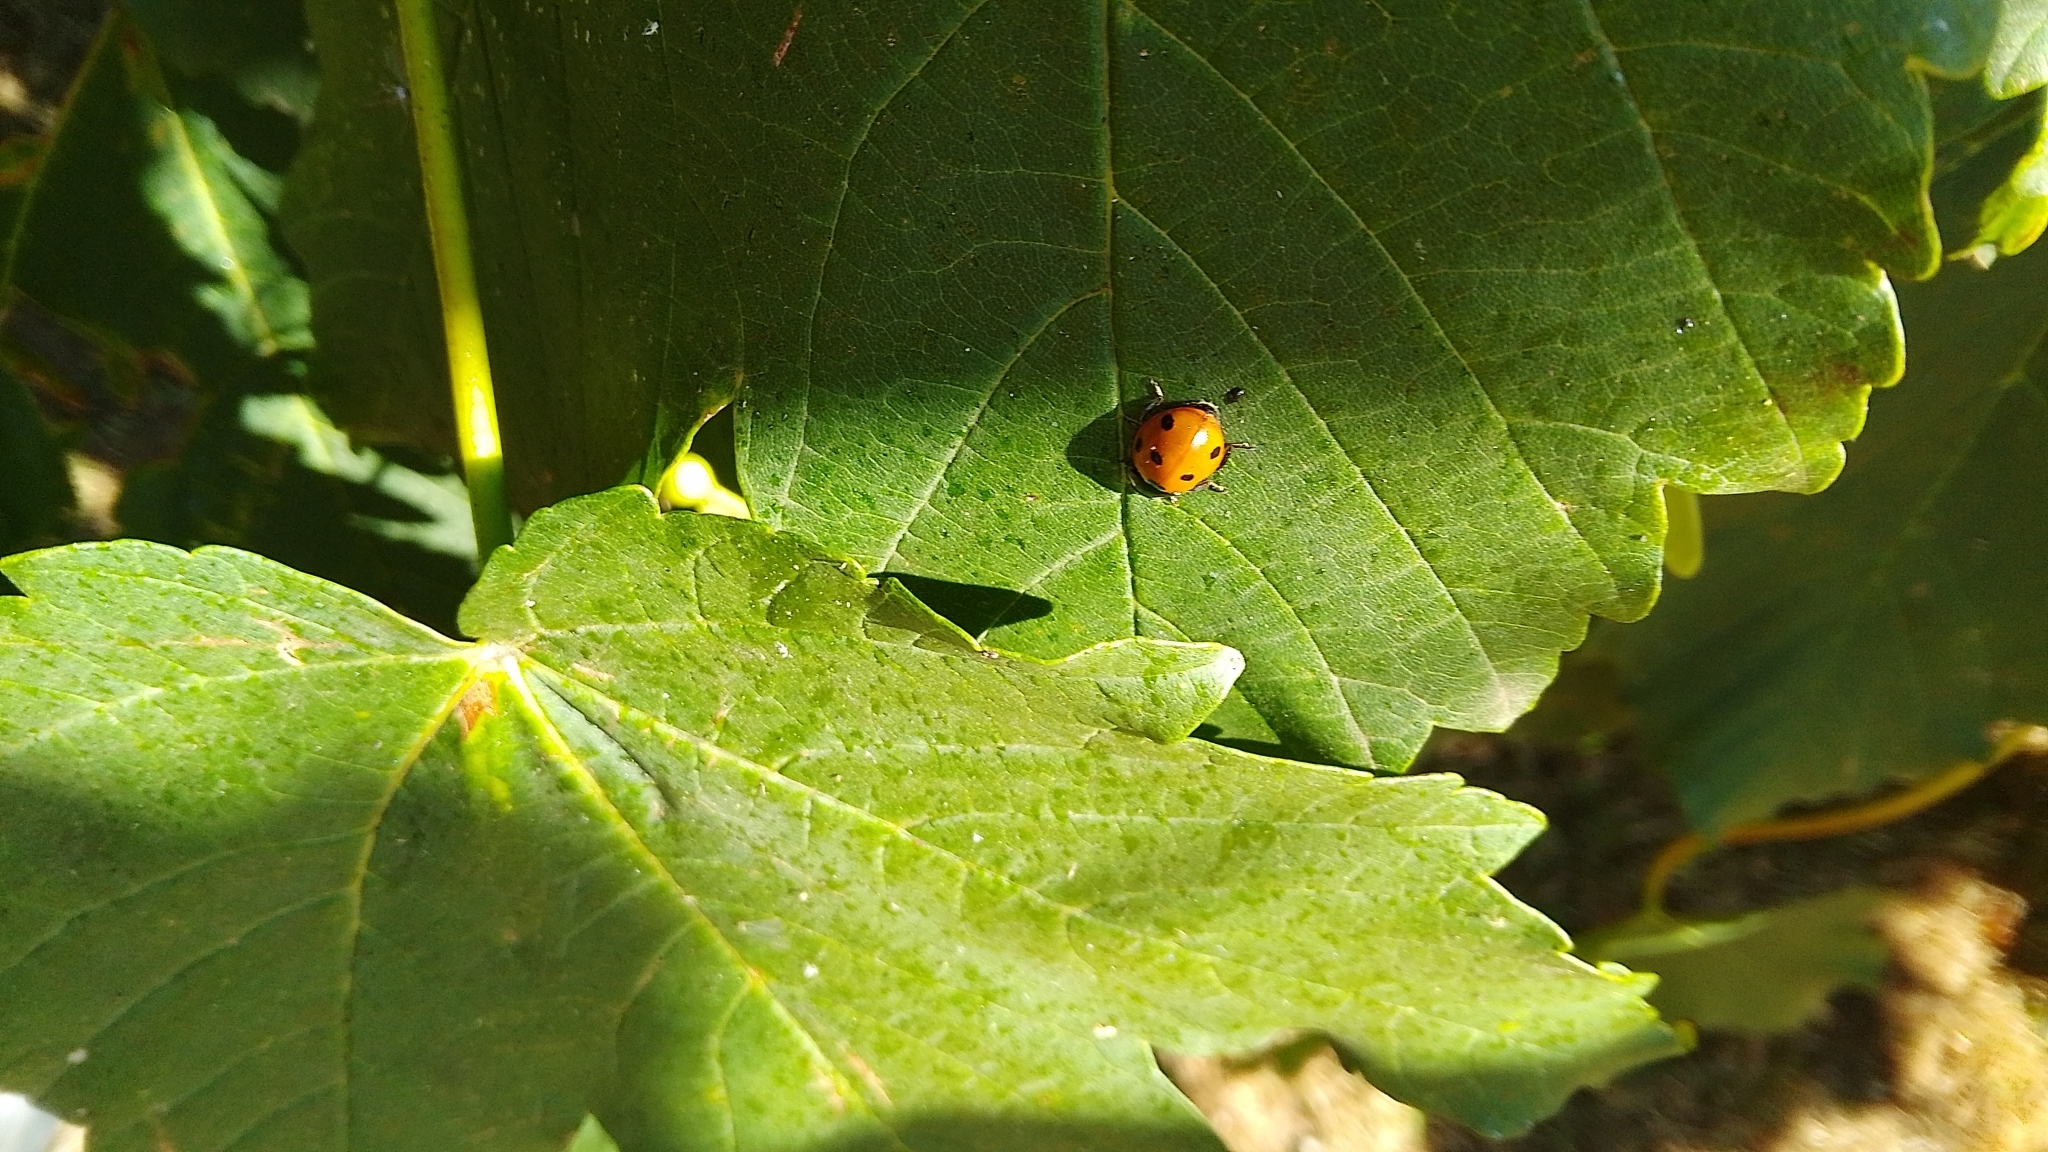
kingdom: Animalia
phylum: Arthropoda
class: Insecta
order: Coleoptera
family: Coccinellidae
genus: Coccinella
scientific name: Coccinella septempunctata
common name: Sevenspotted lady beetle
